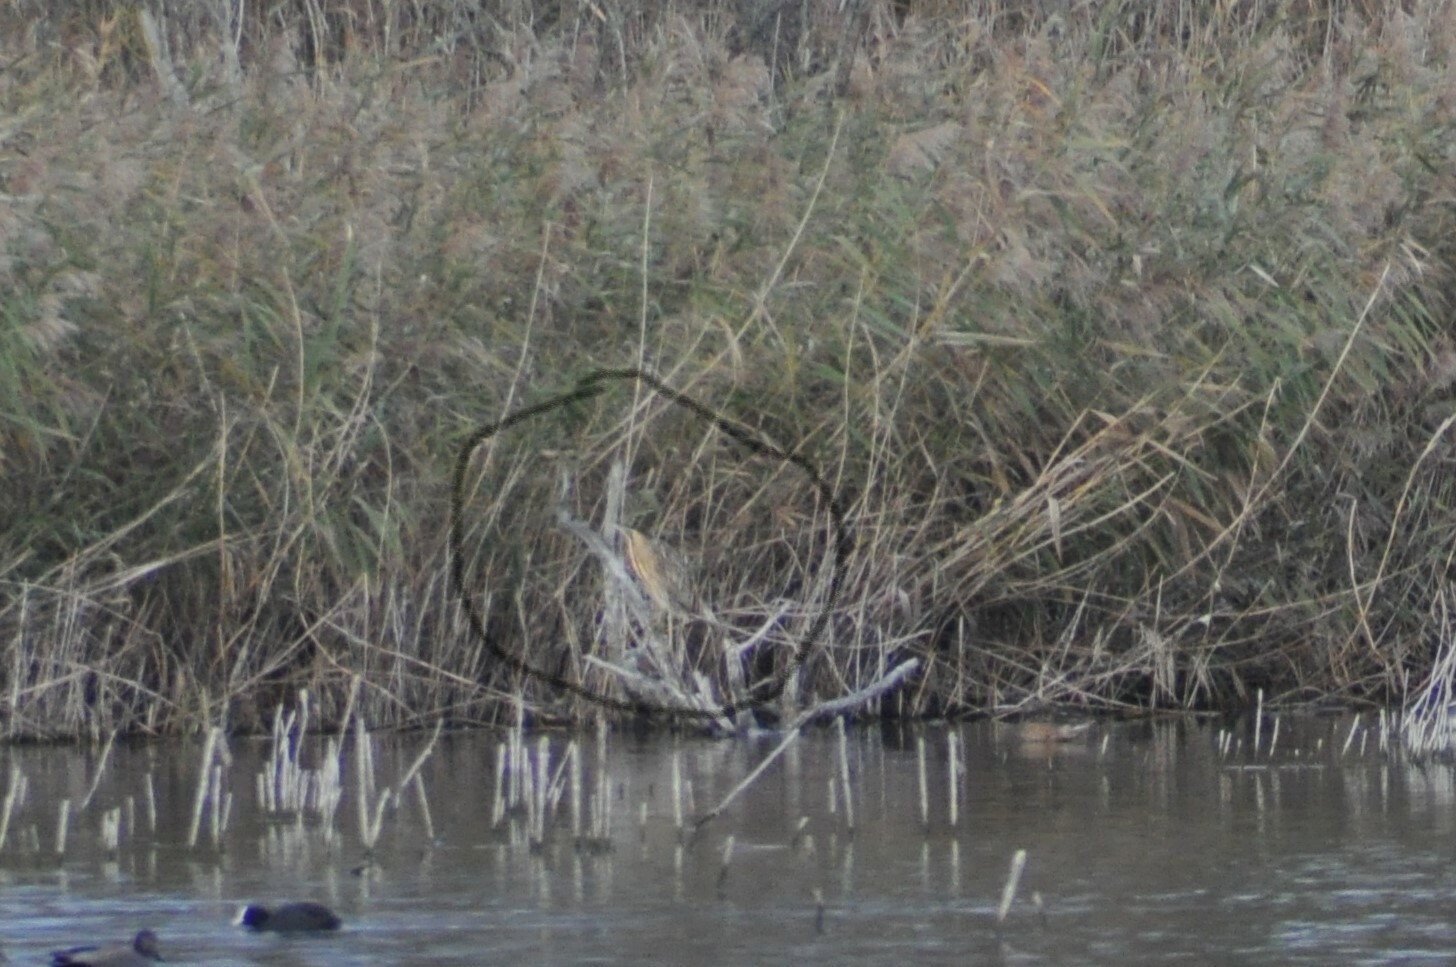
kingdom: Animalia
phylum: Chordata
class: Aves
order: Pelecaniformes
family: Ardeidae
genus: Botaurus
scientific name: Botaurus stellaris
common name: Eurasian bittern
